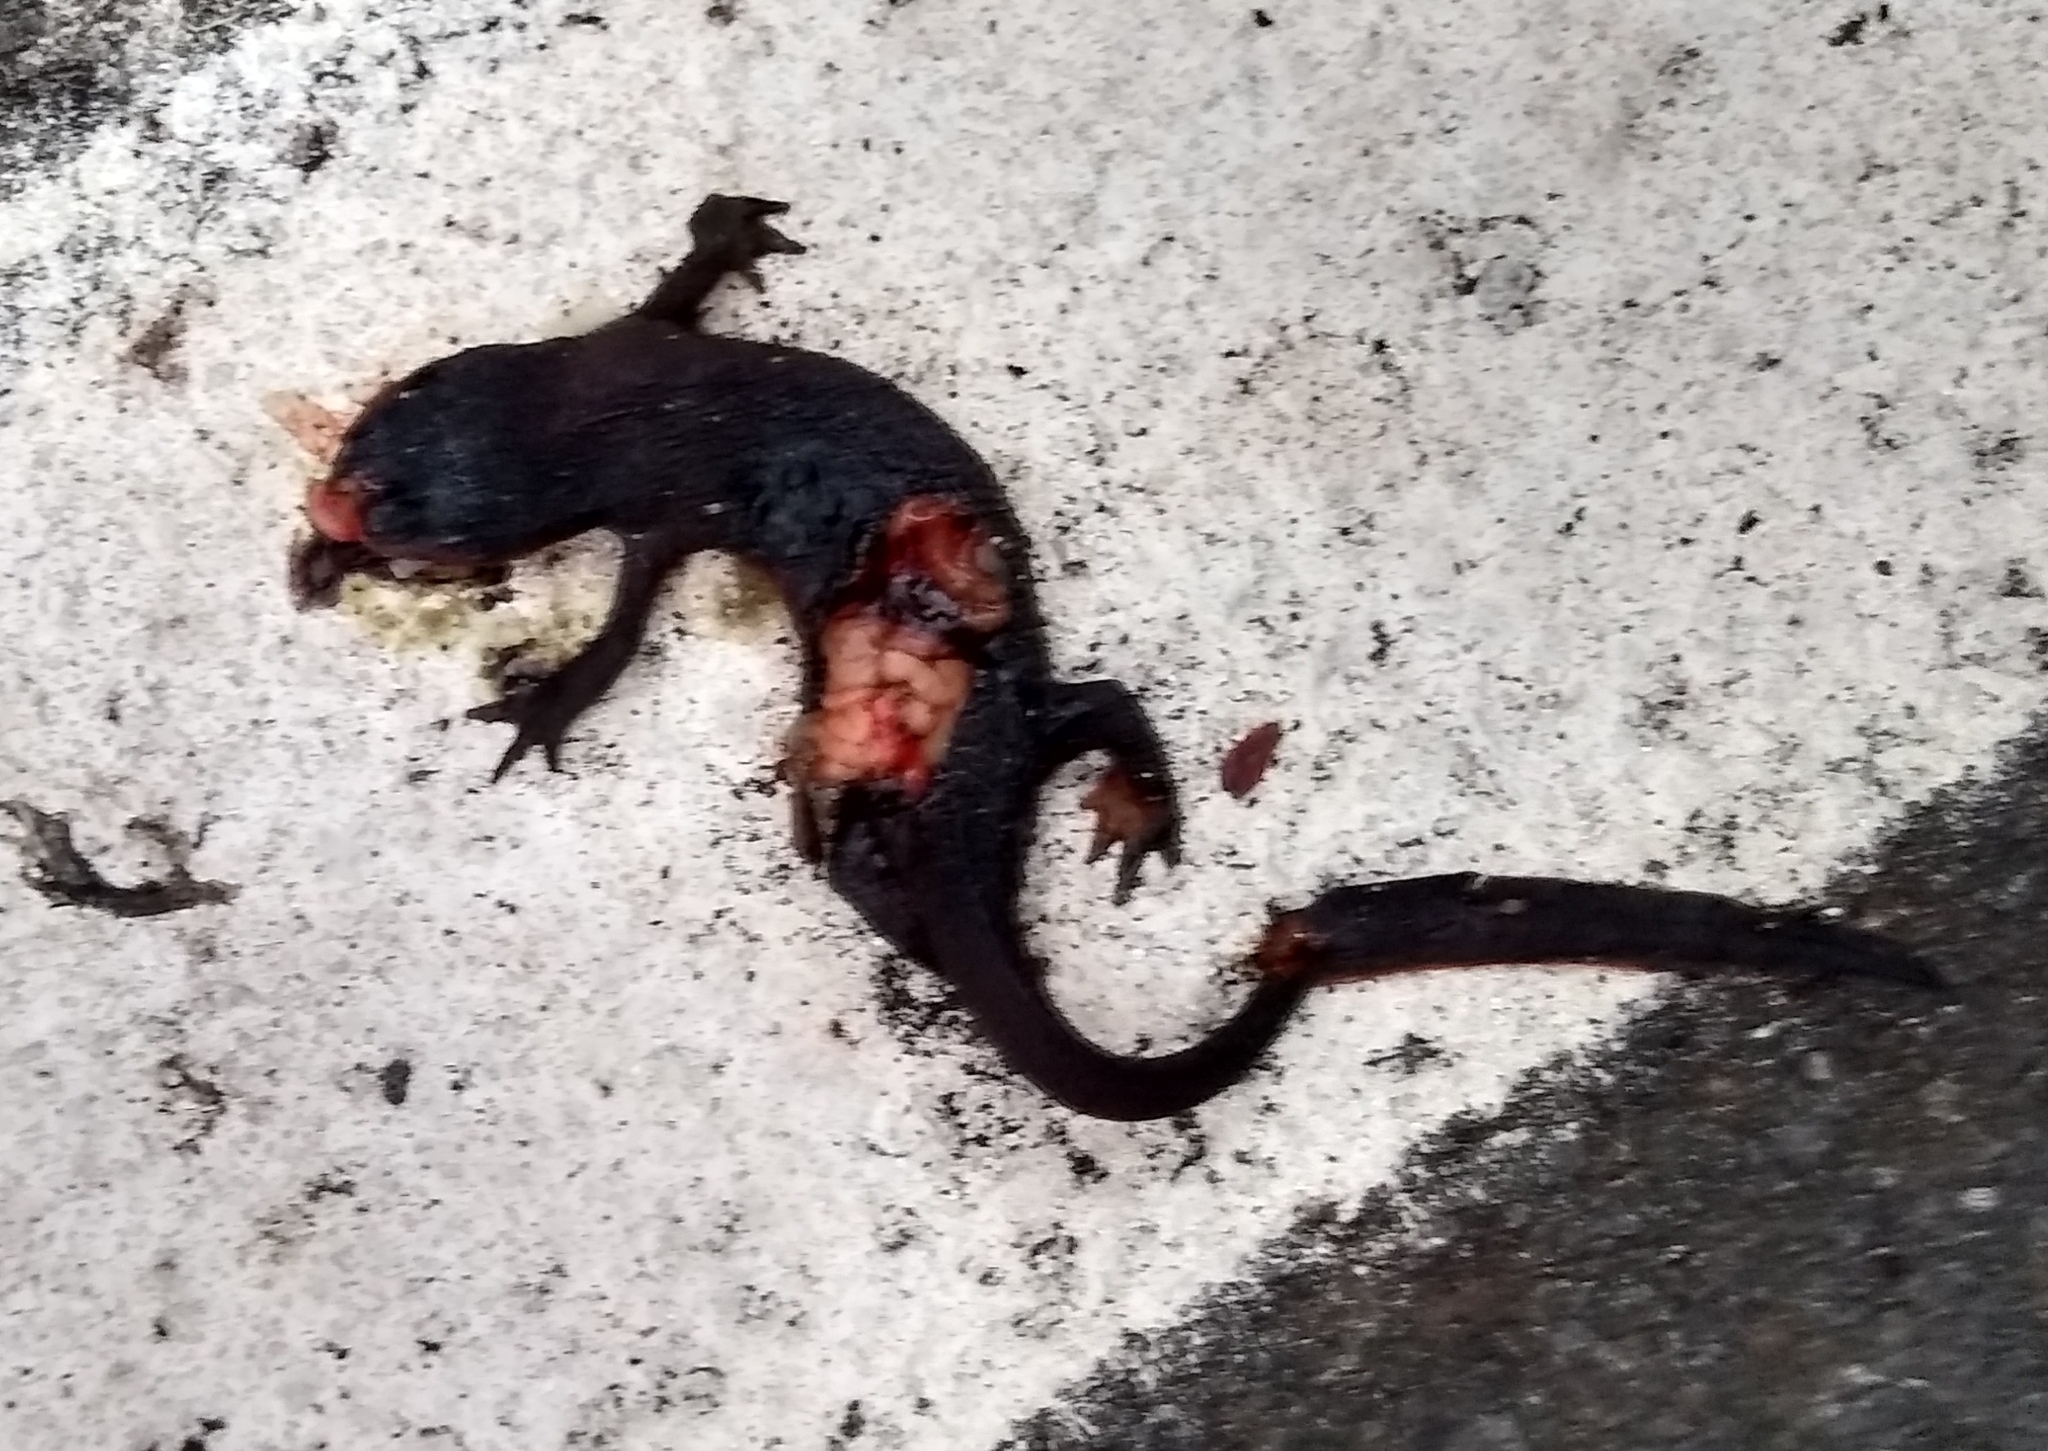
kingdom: Animalia
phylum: Chordata
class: Amphibia
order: Caudata
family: Salamandridae
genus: Taricha
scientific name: Taricha granulosa
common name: Roughskin newt
